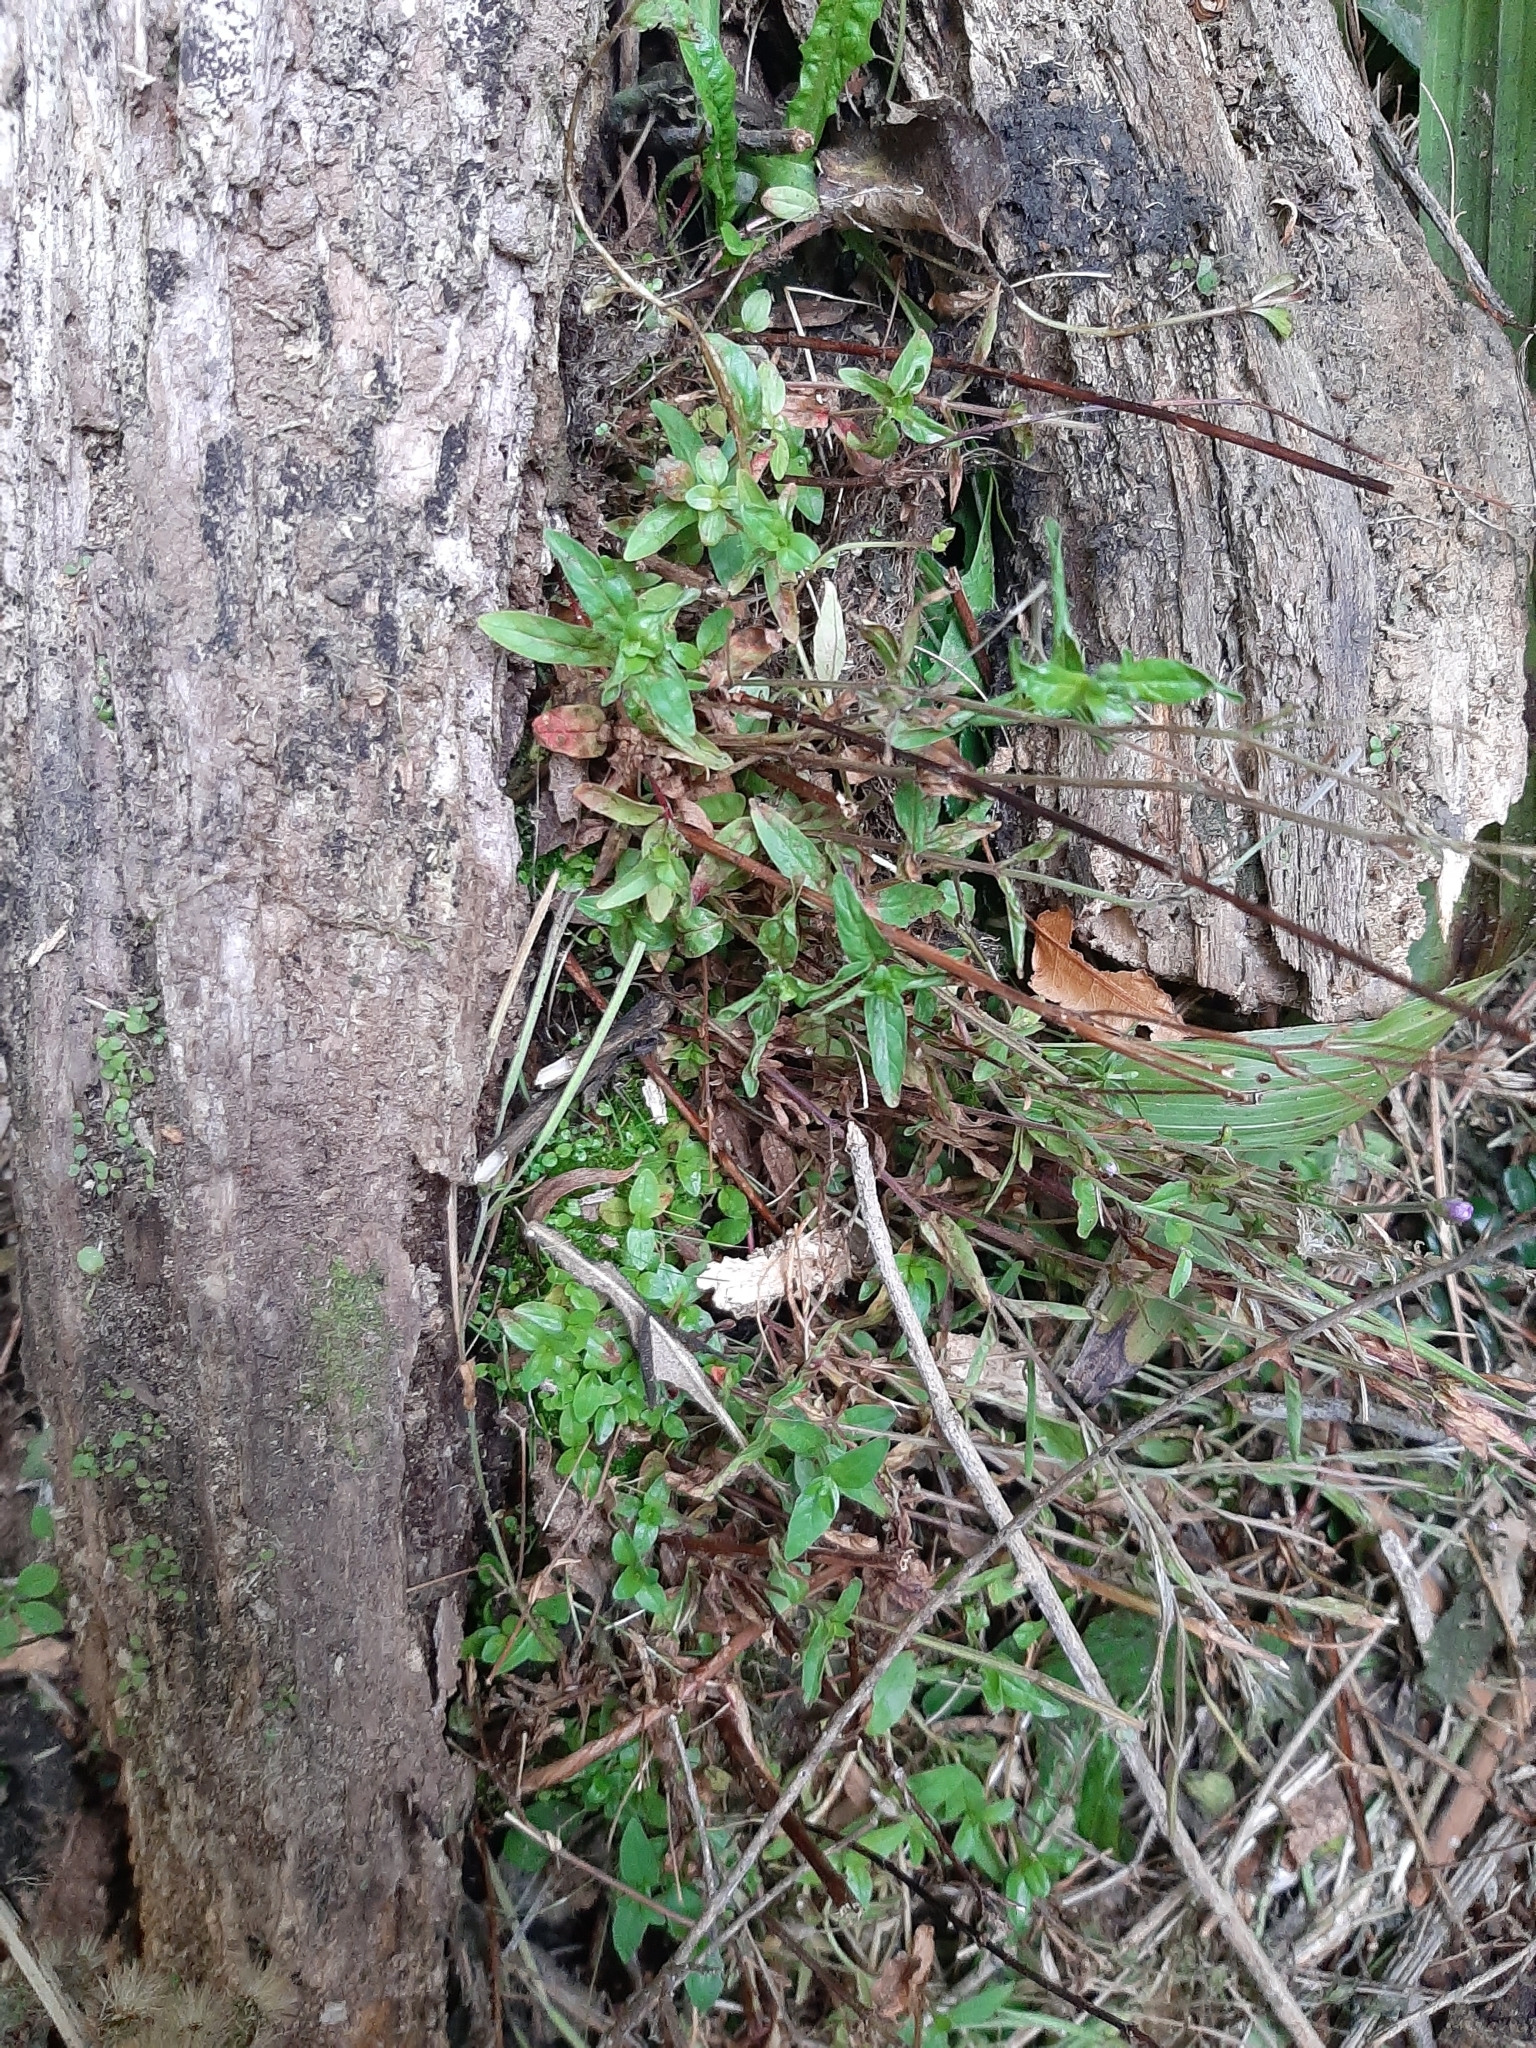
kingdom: Plantae
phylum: Tracheophyta
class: Magnoliopsida
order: Myrtales
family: Onagraceae
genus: Epilobium
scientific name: Epilobium ciliatum
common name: American willowherb
